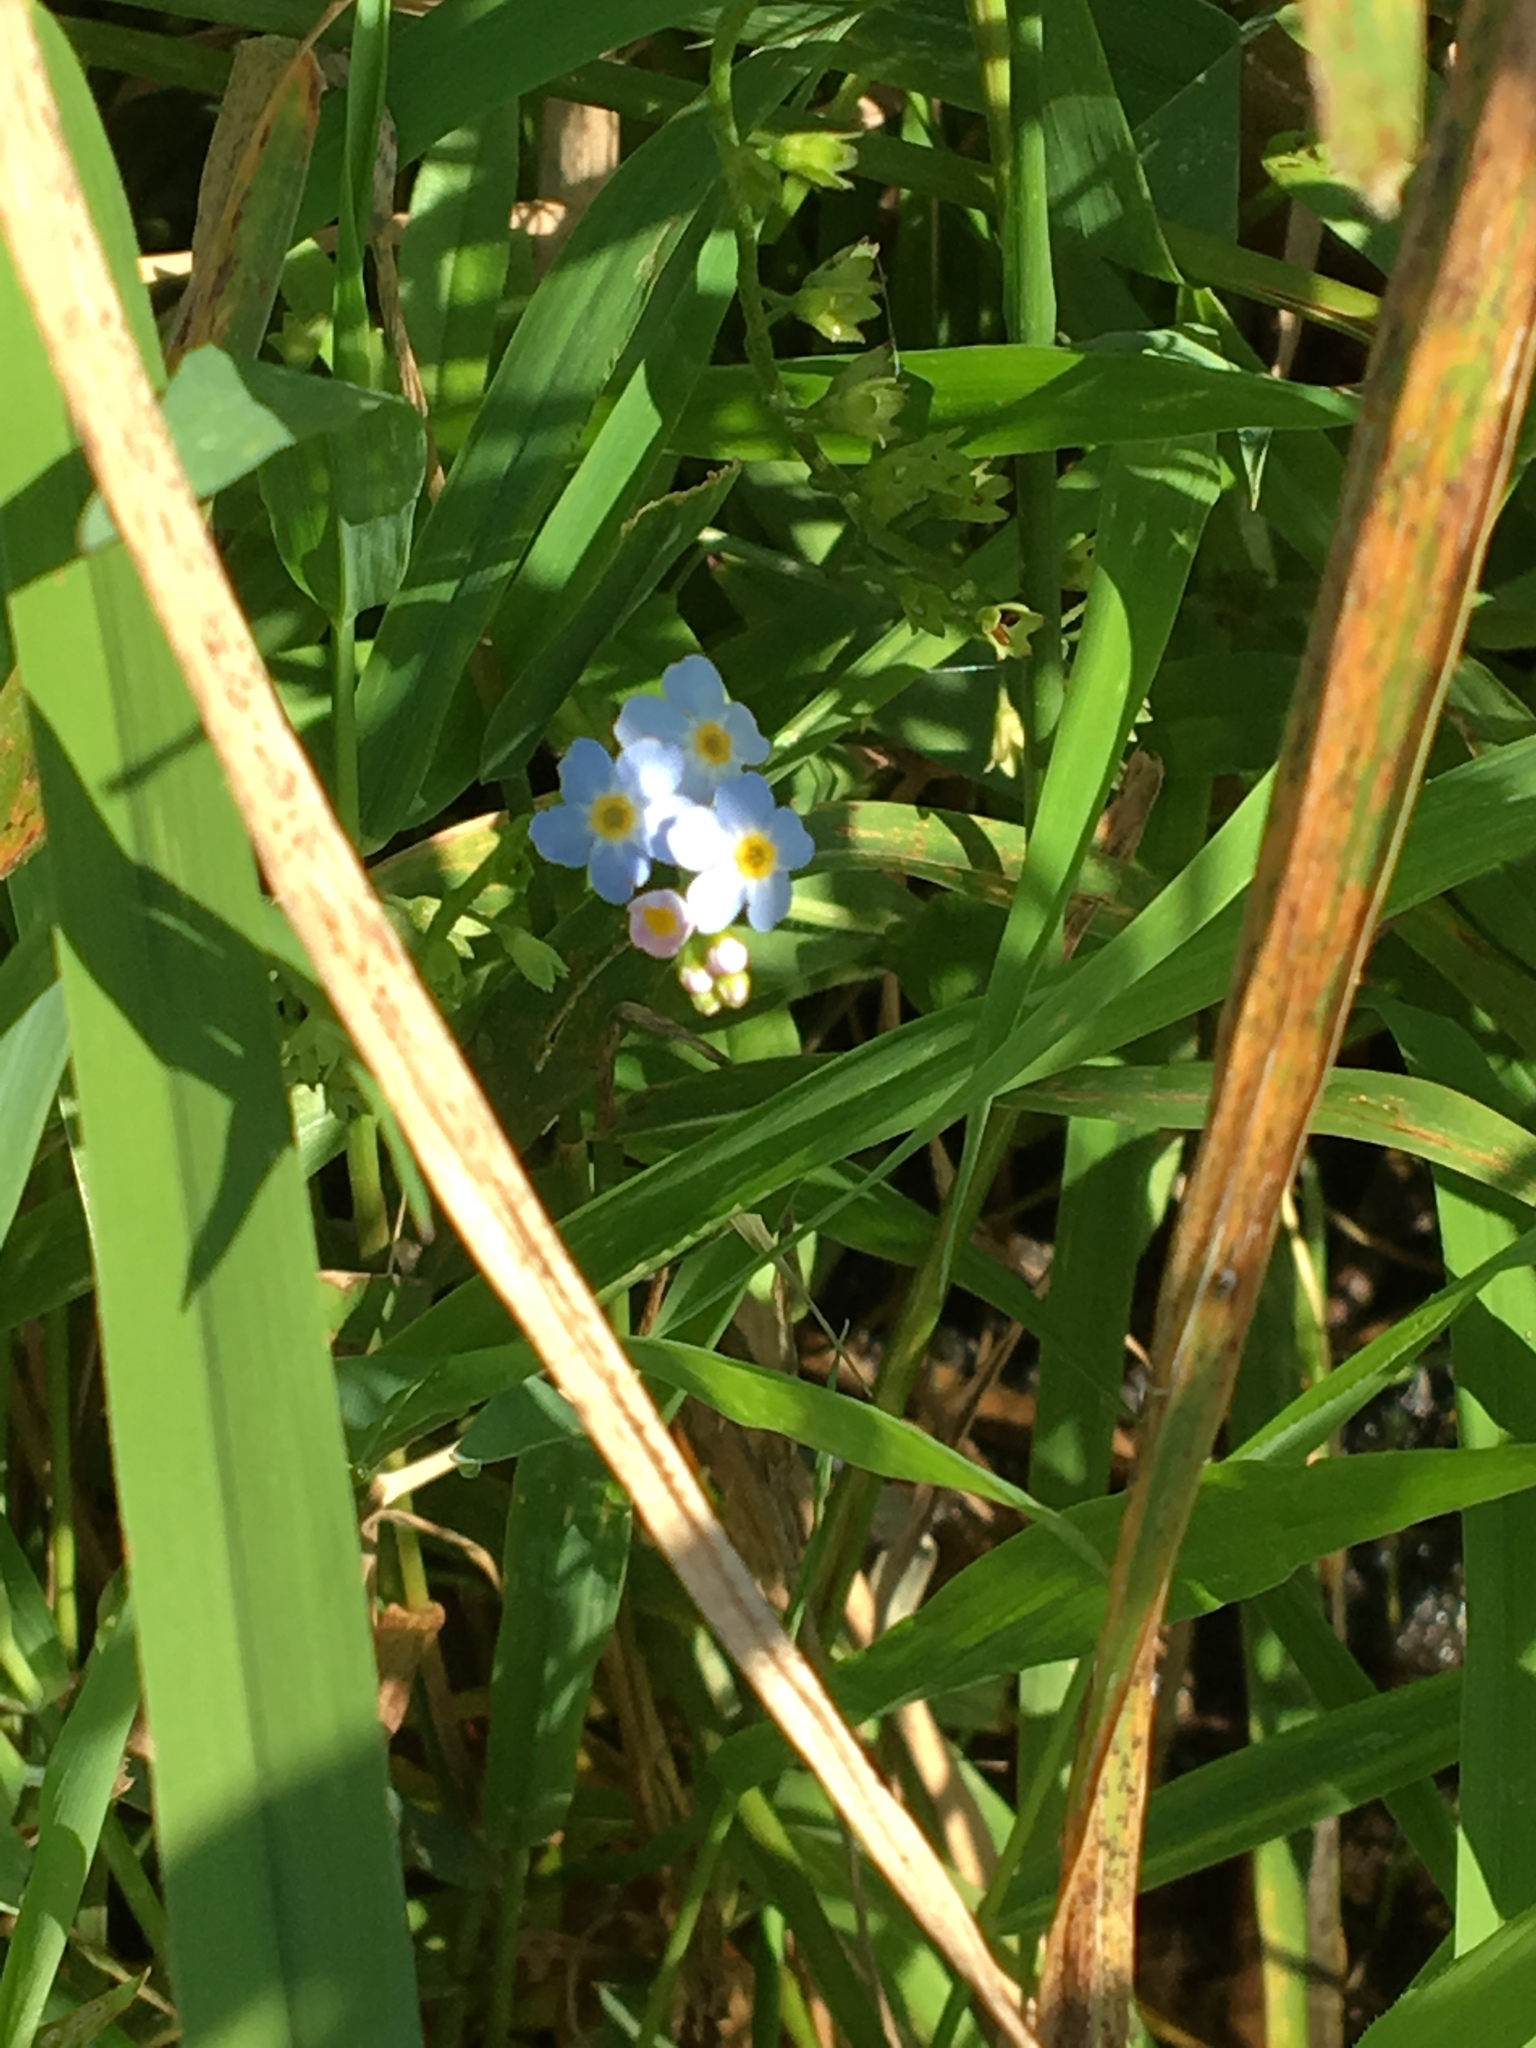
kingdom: Plantae
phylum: Tracheophyta
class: Magnoliopsida
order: Boraginales
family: Boraginaceae
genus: Myosotis
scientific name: Myosotis scorpioides
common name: Water forget-me-not
